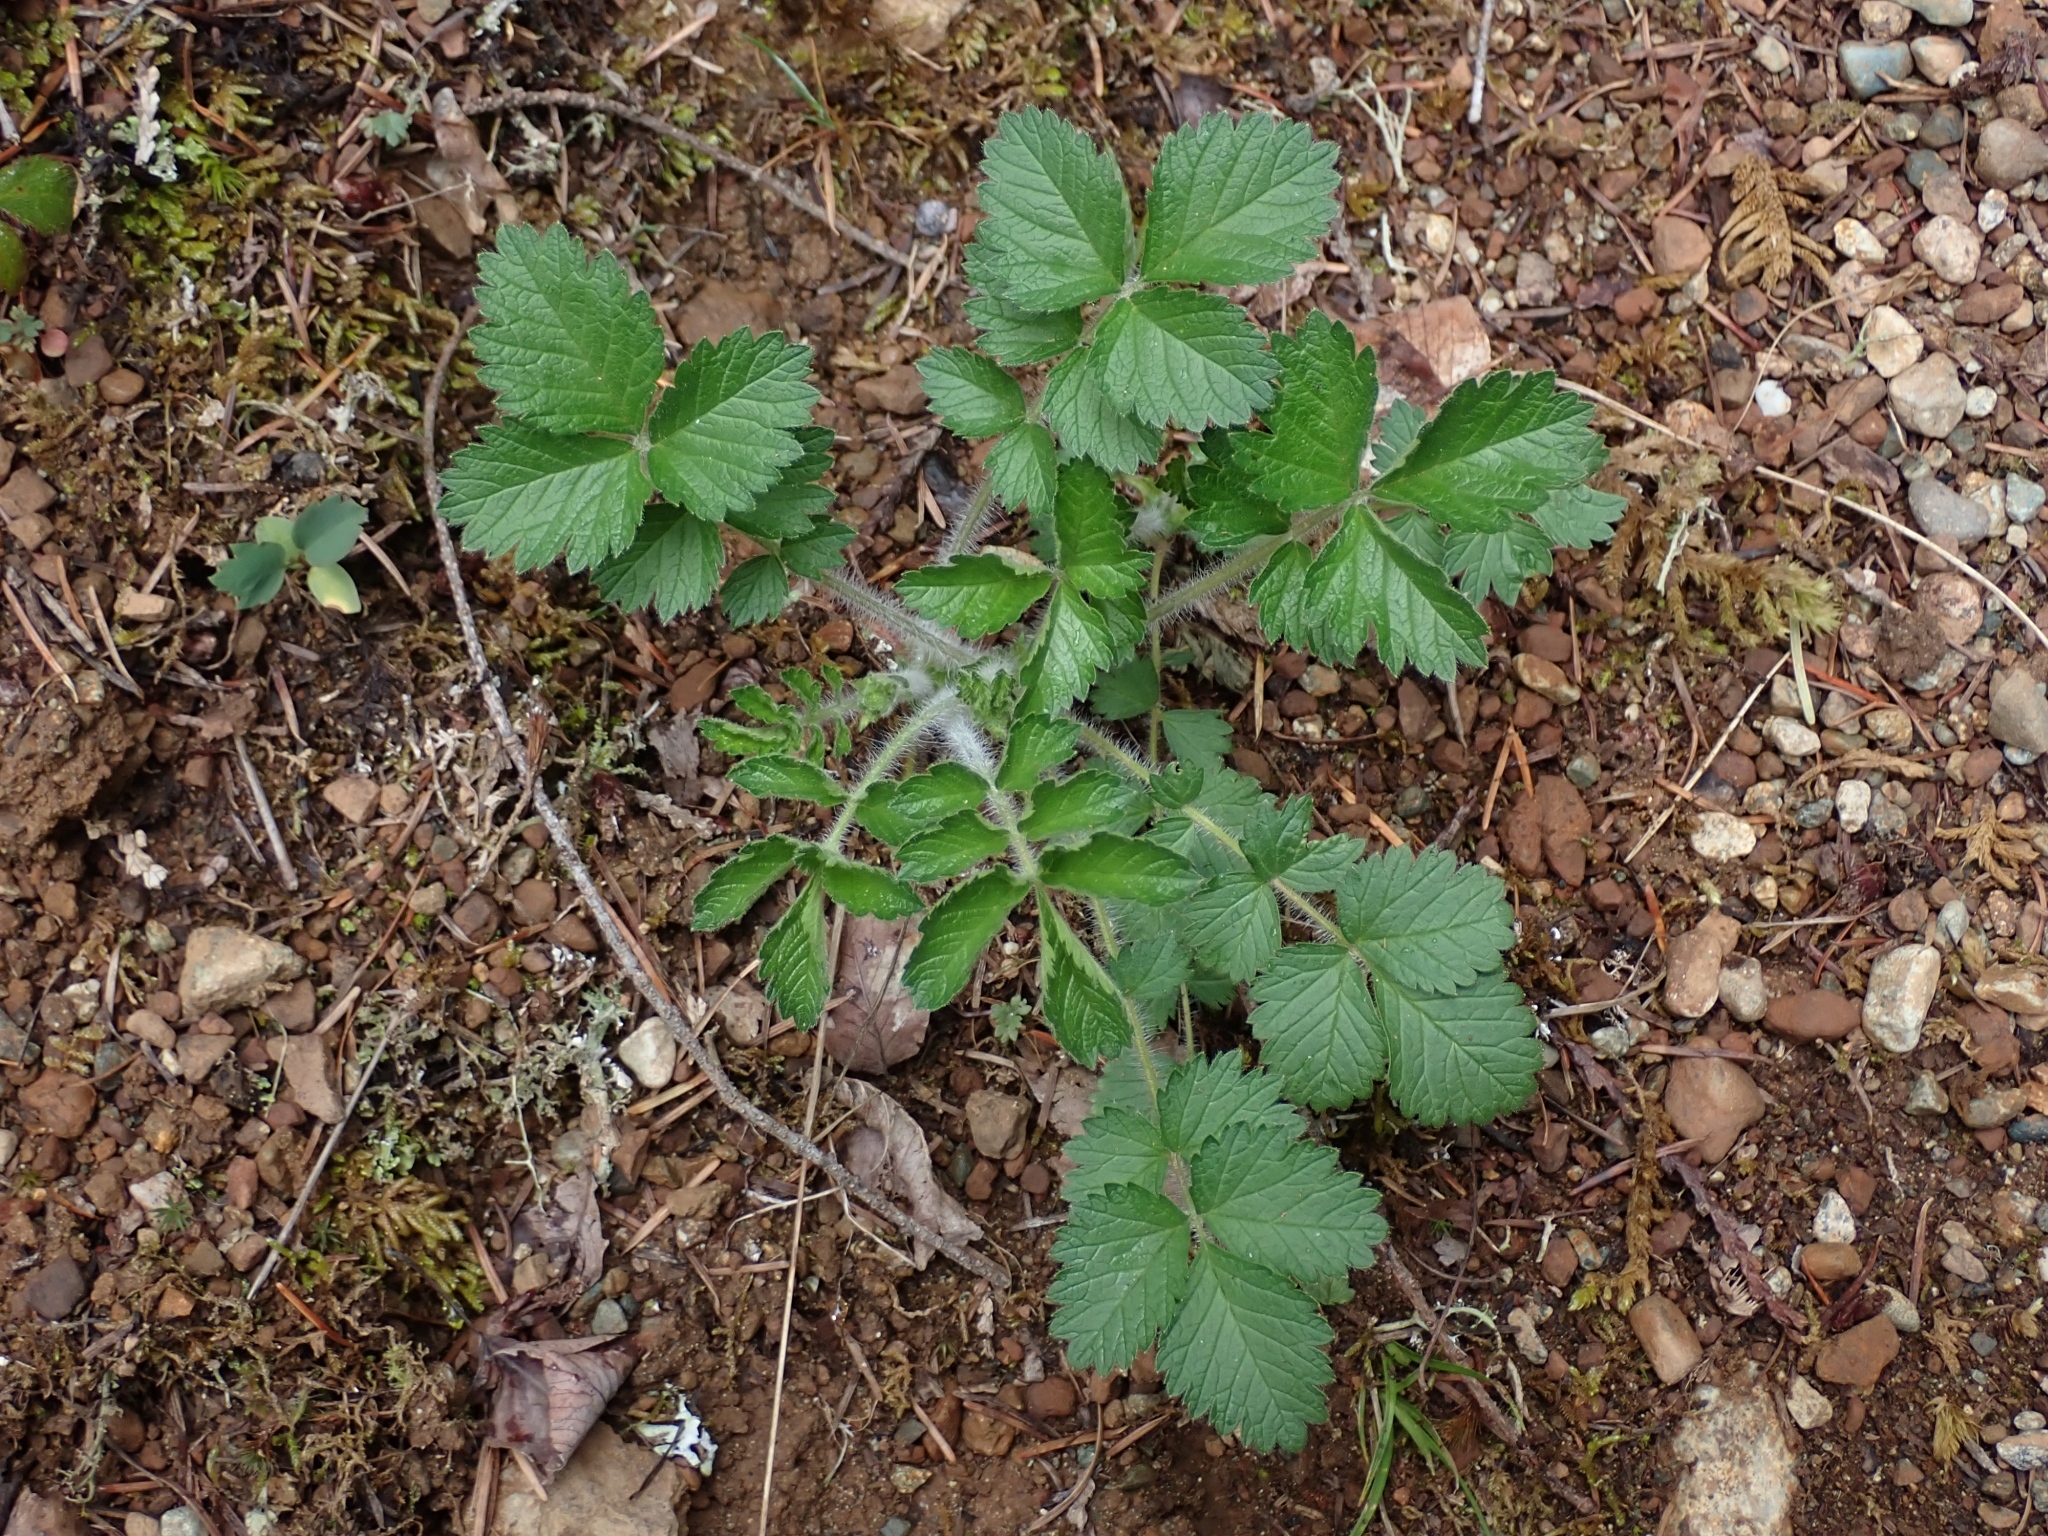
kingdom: Plantae
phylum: Tracheophyta
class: Magnoliopsida
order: Rosales
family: Rosaceae
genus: Drymocallis
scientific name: Drymocallis glandulosa
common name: Sticky cinquefoil
